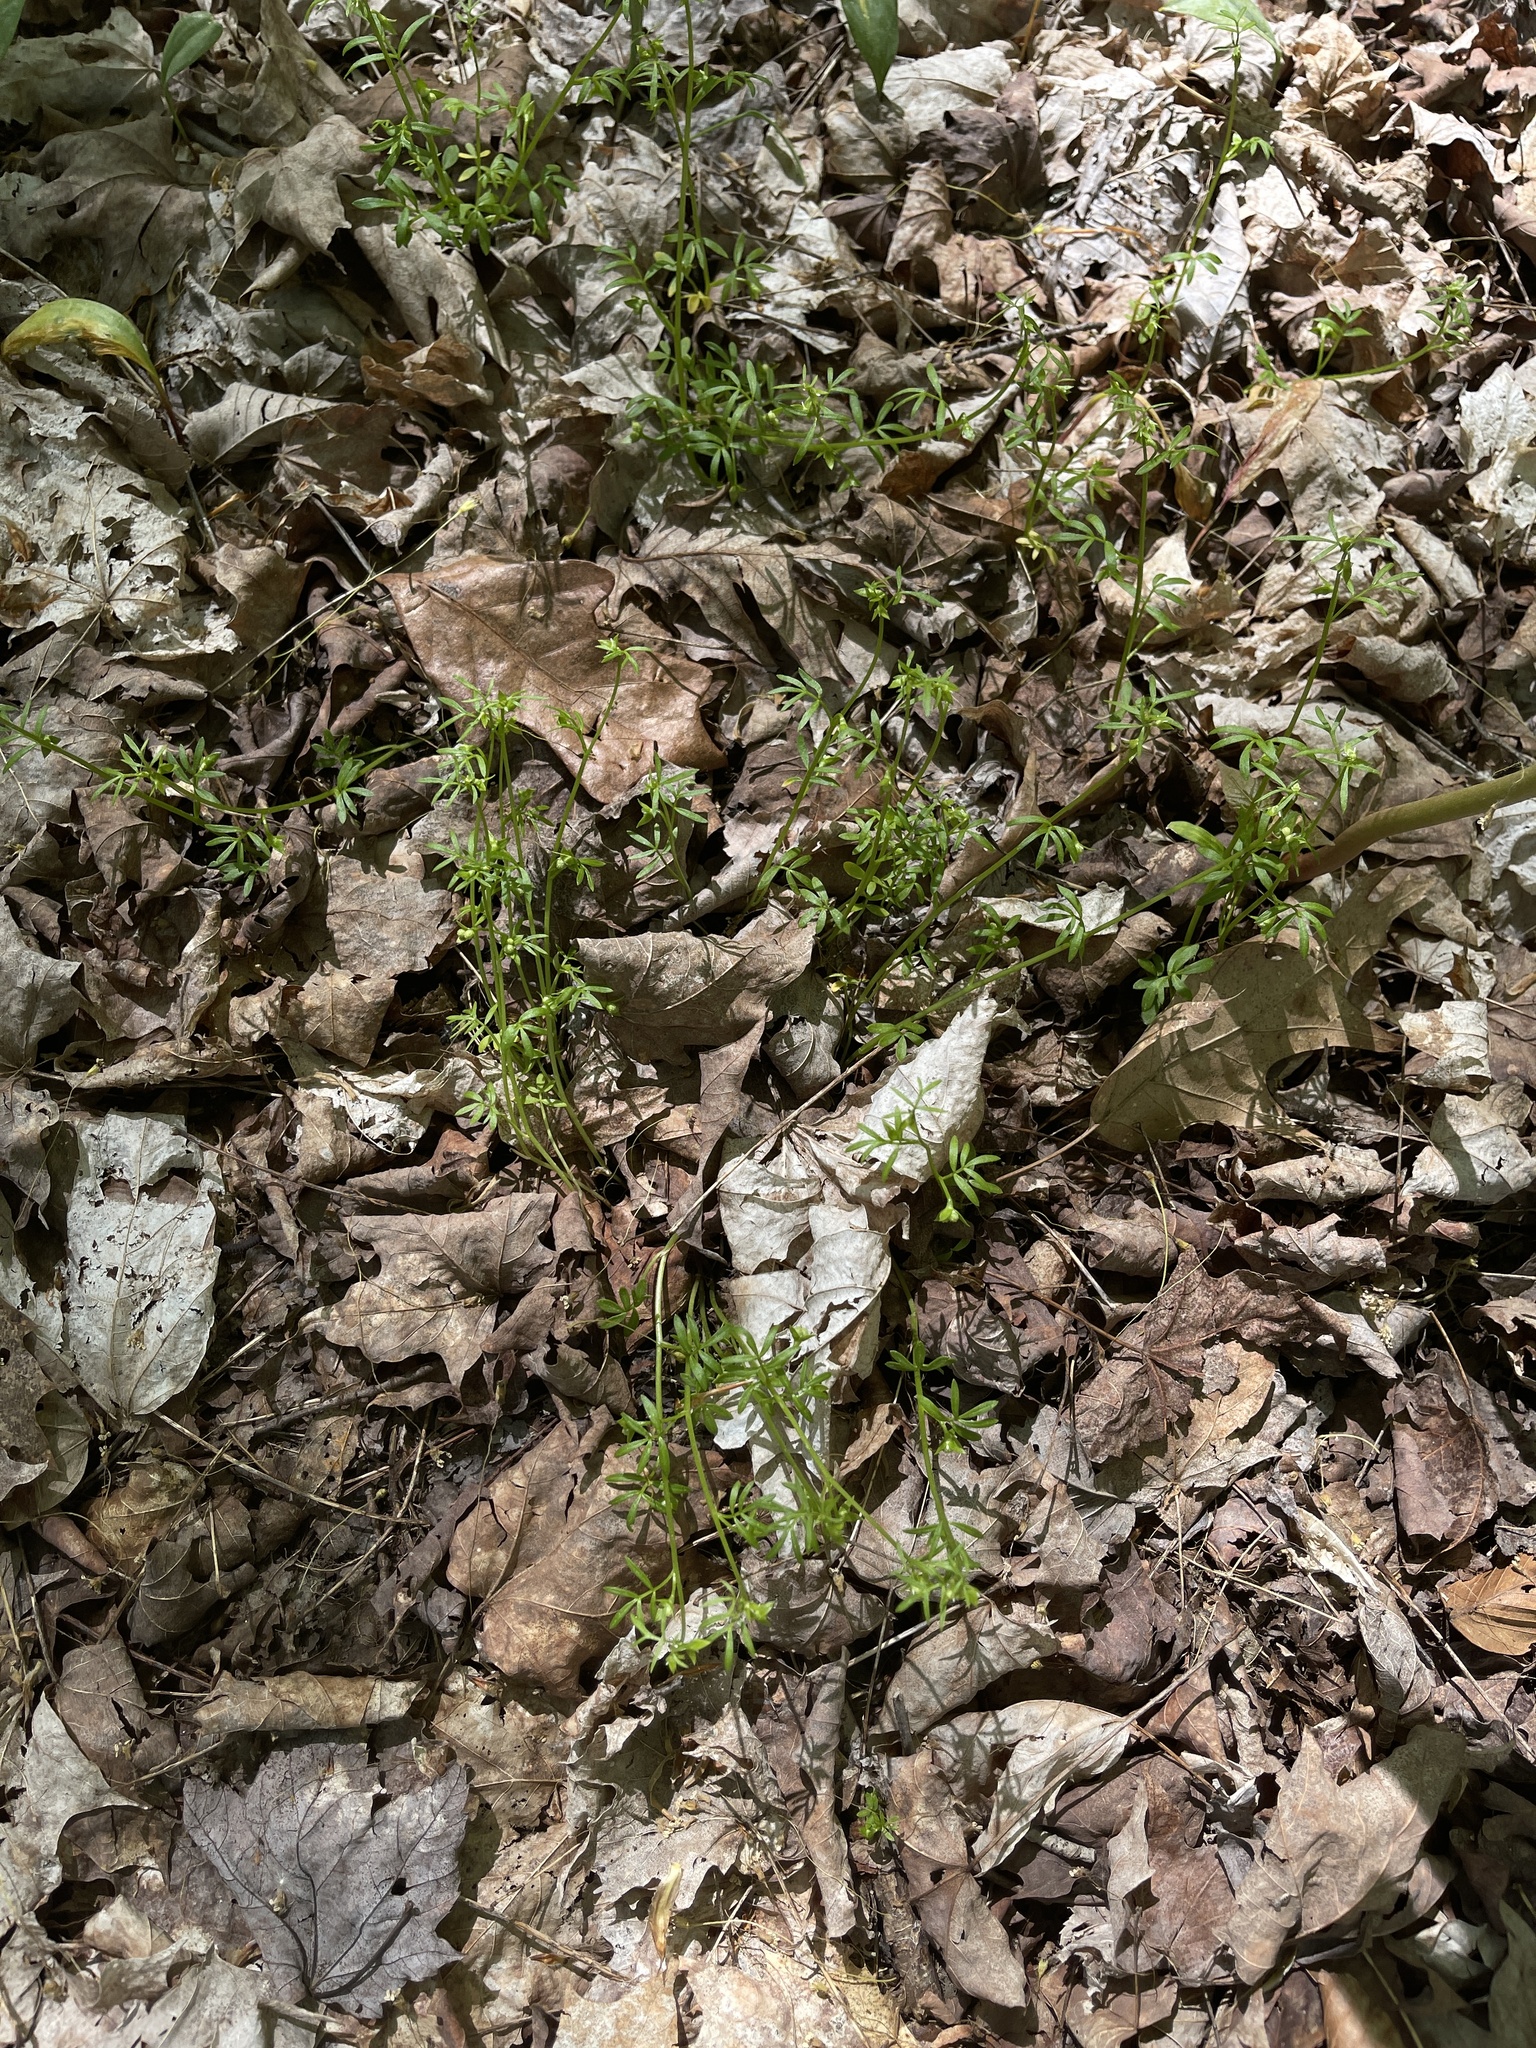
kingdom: Plantae
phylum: Tracheophyta
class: Magnoliopsida
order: Brassicales
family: Limnanthaceae
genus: Floerkea
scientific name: Floerkea proserpinacoides
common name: False mermaid
